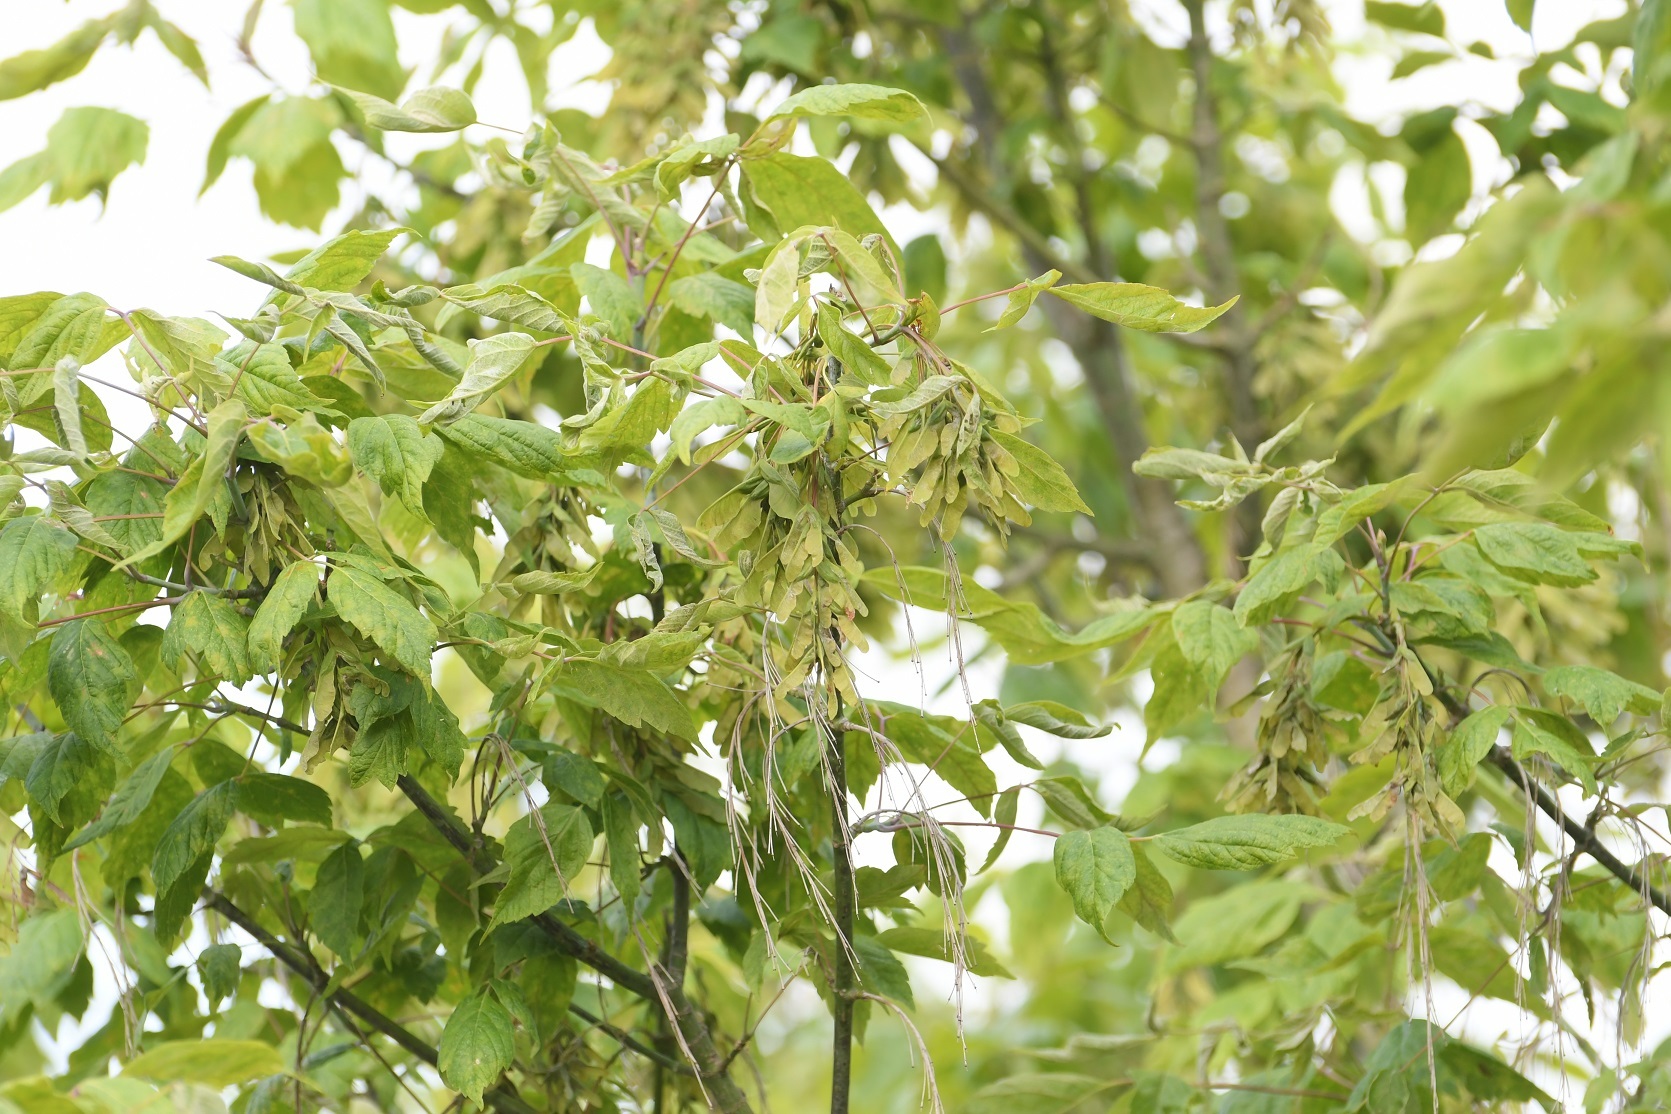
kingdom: Plantae
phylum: Tracheophyta
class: Magnoliopsida
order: Sapindales
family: Sapindaceae
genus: Acer
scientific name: Acer negundo
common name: Ashleaf maple
